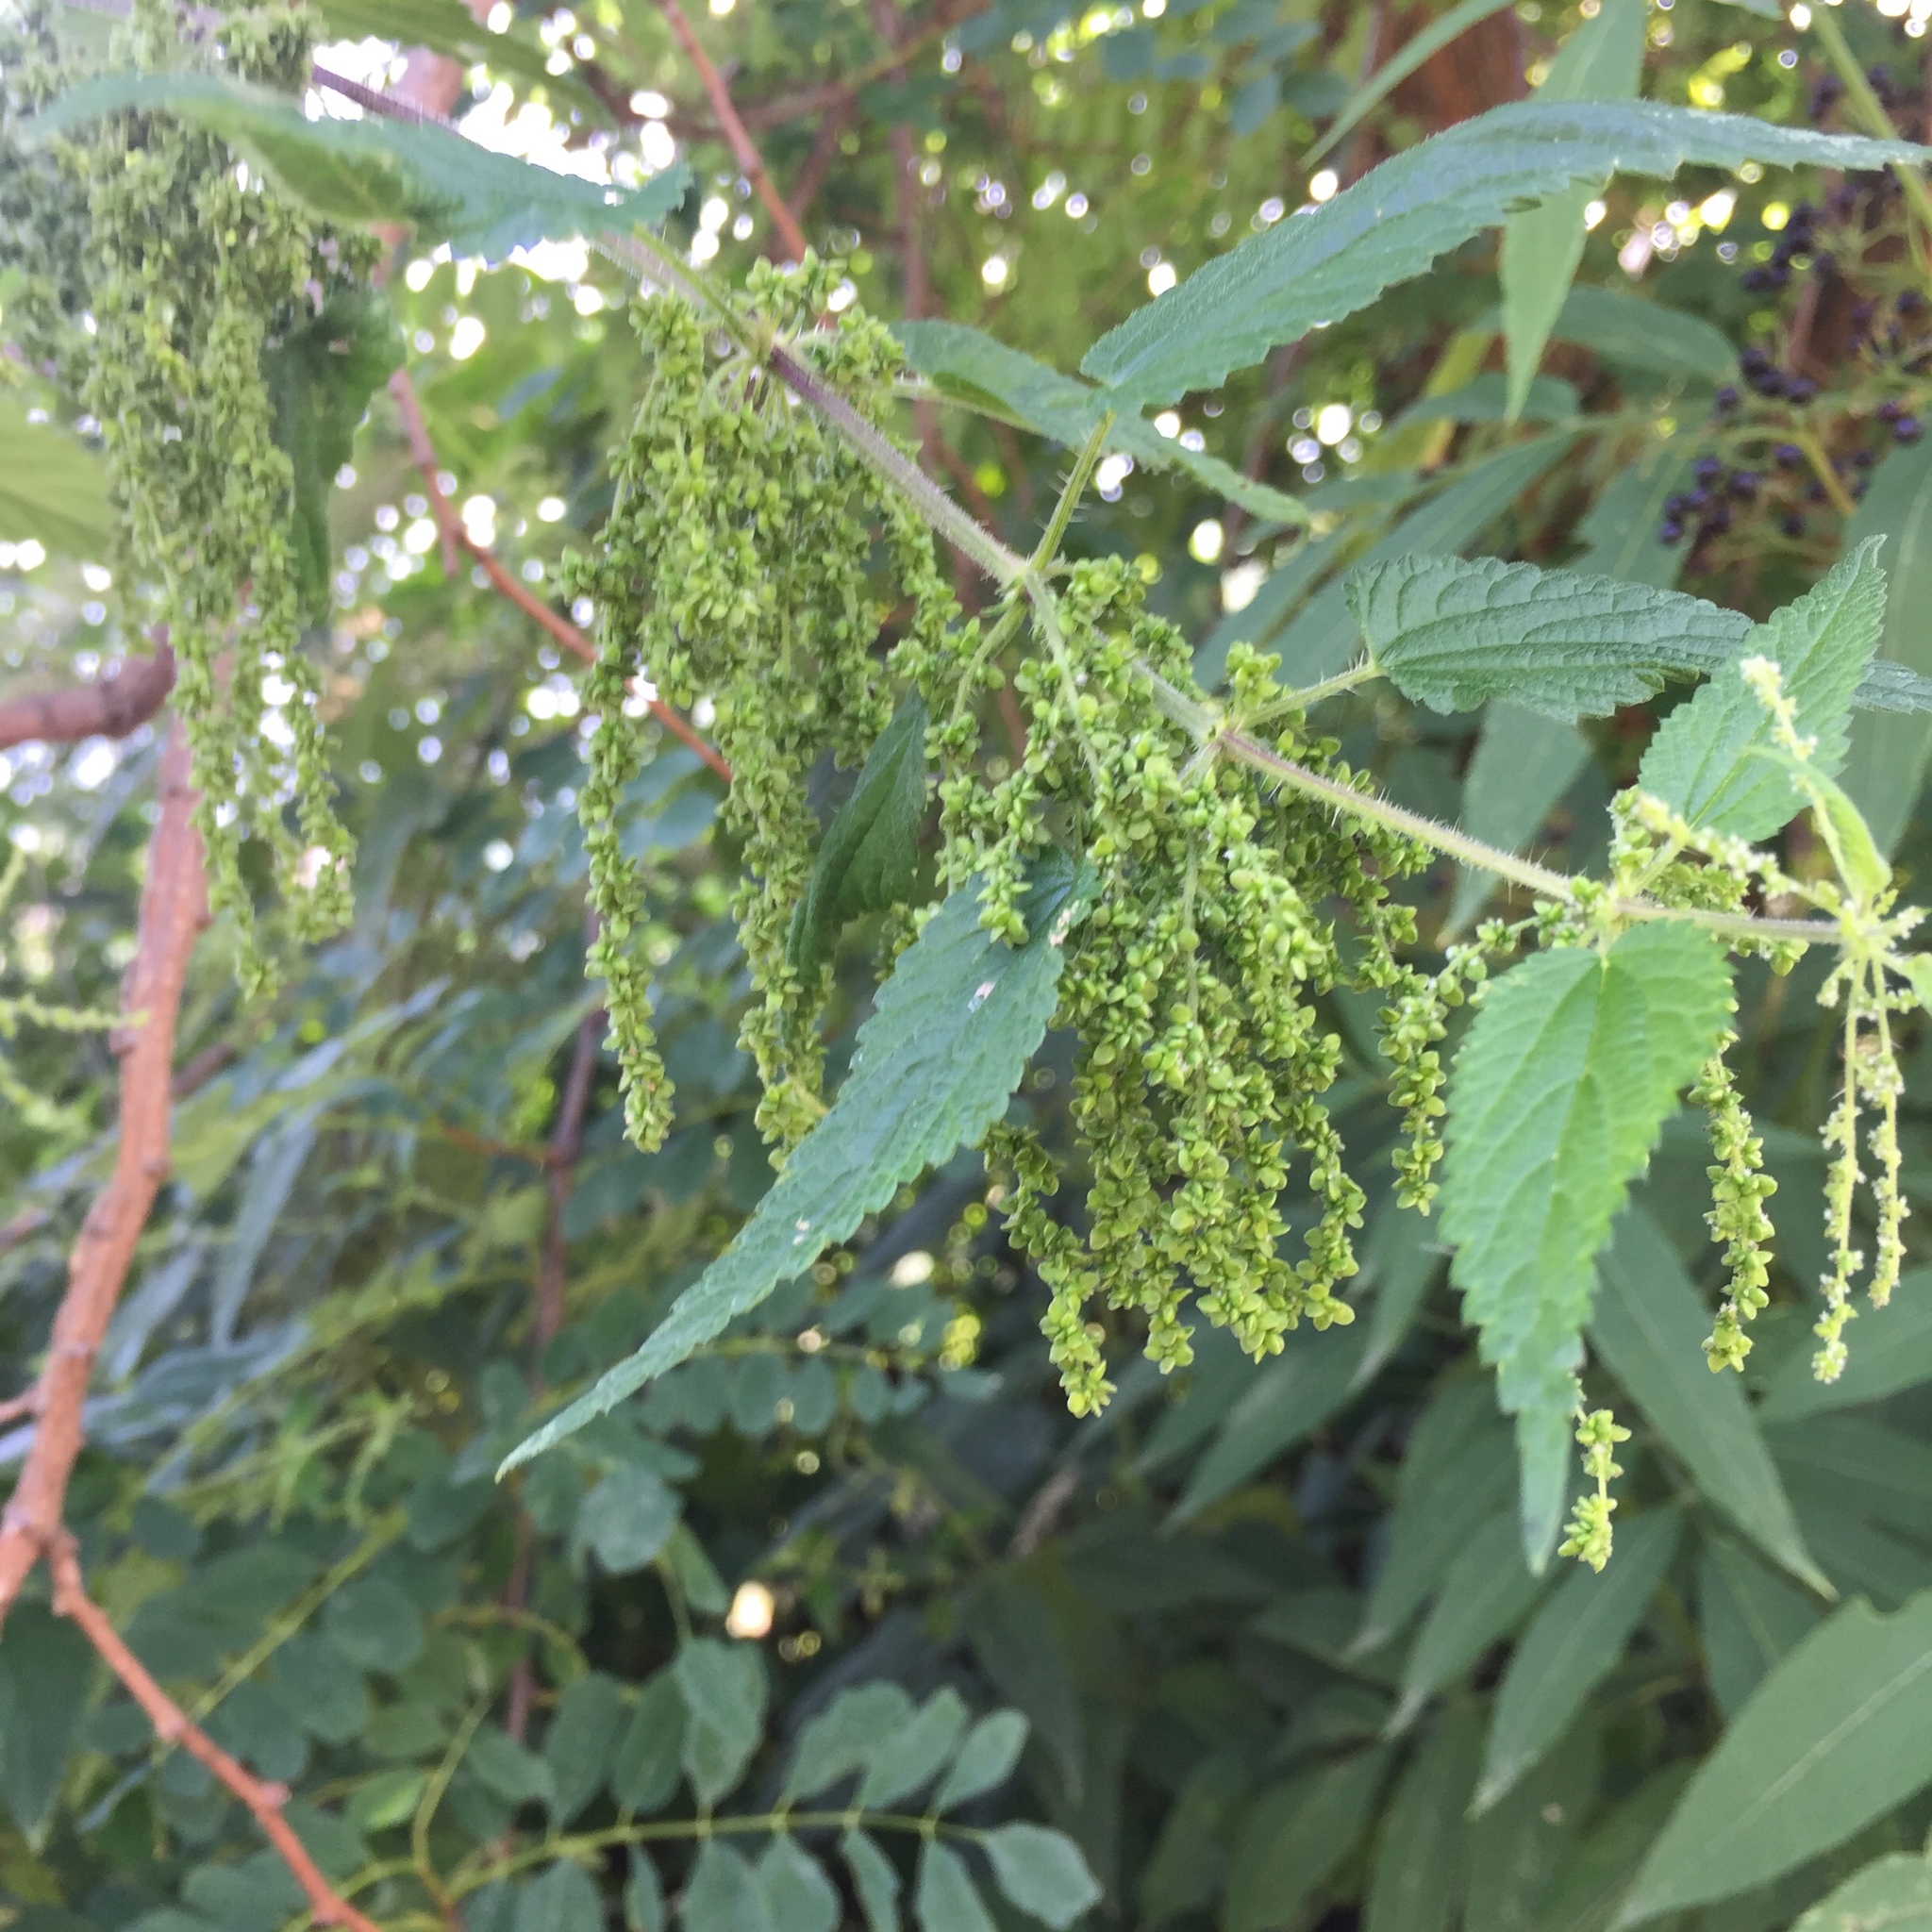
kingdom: Plantae
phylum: Tracheophyta
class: Magnoliopsida
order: Rosales
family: Urticaceae
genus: Urtica
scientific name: Urtica dioica
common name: Common nettle
